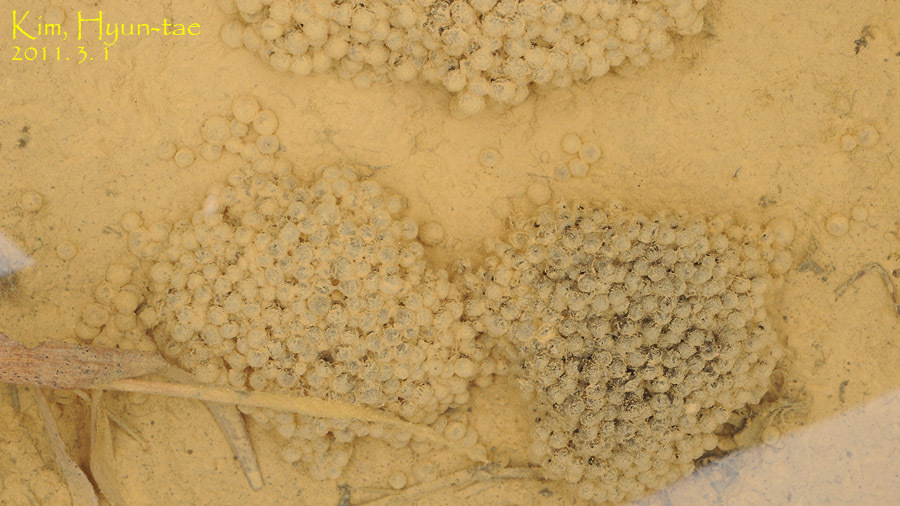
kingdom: Animalia
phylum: Chordata
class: Amphibia
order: Anura
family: Ranidae
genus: Rana
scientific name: Rana coreana
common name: Korean brown frog
